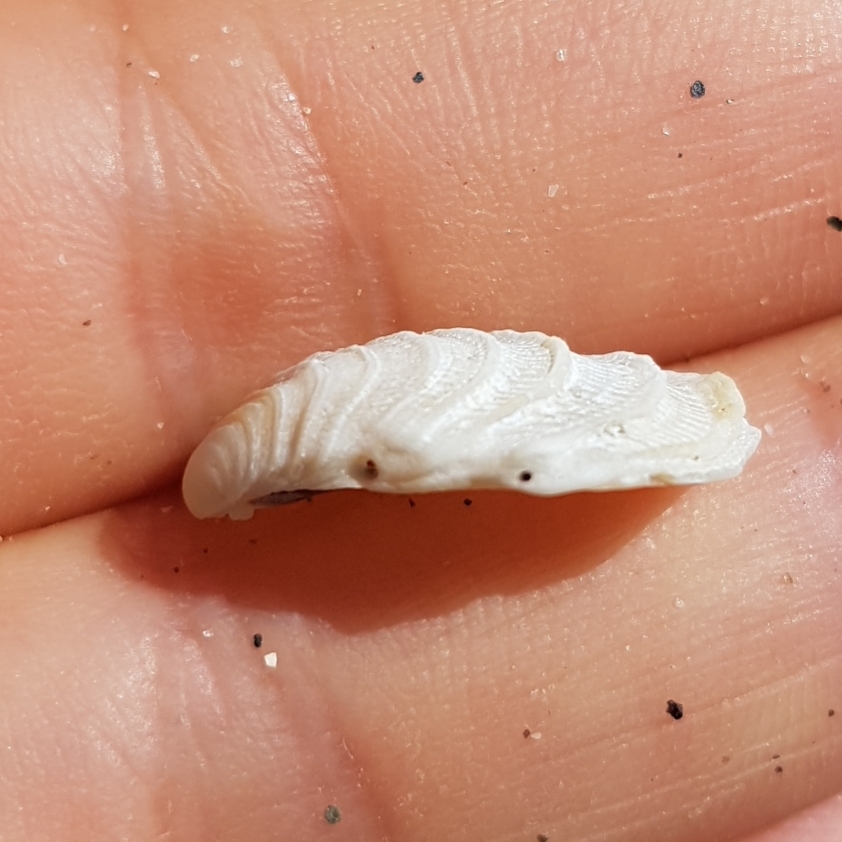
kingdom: Animalia
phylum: Mollusca
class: Bivalvia
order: Venerida
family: Veneridae
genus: Irus
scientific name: Irus irus
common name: Irus clam
